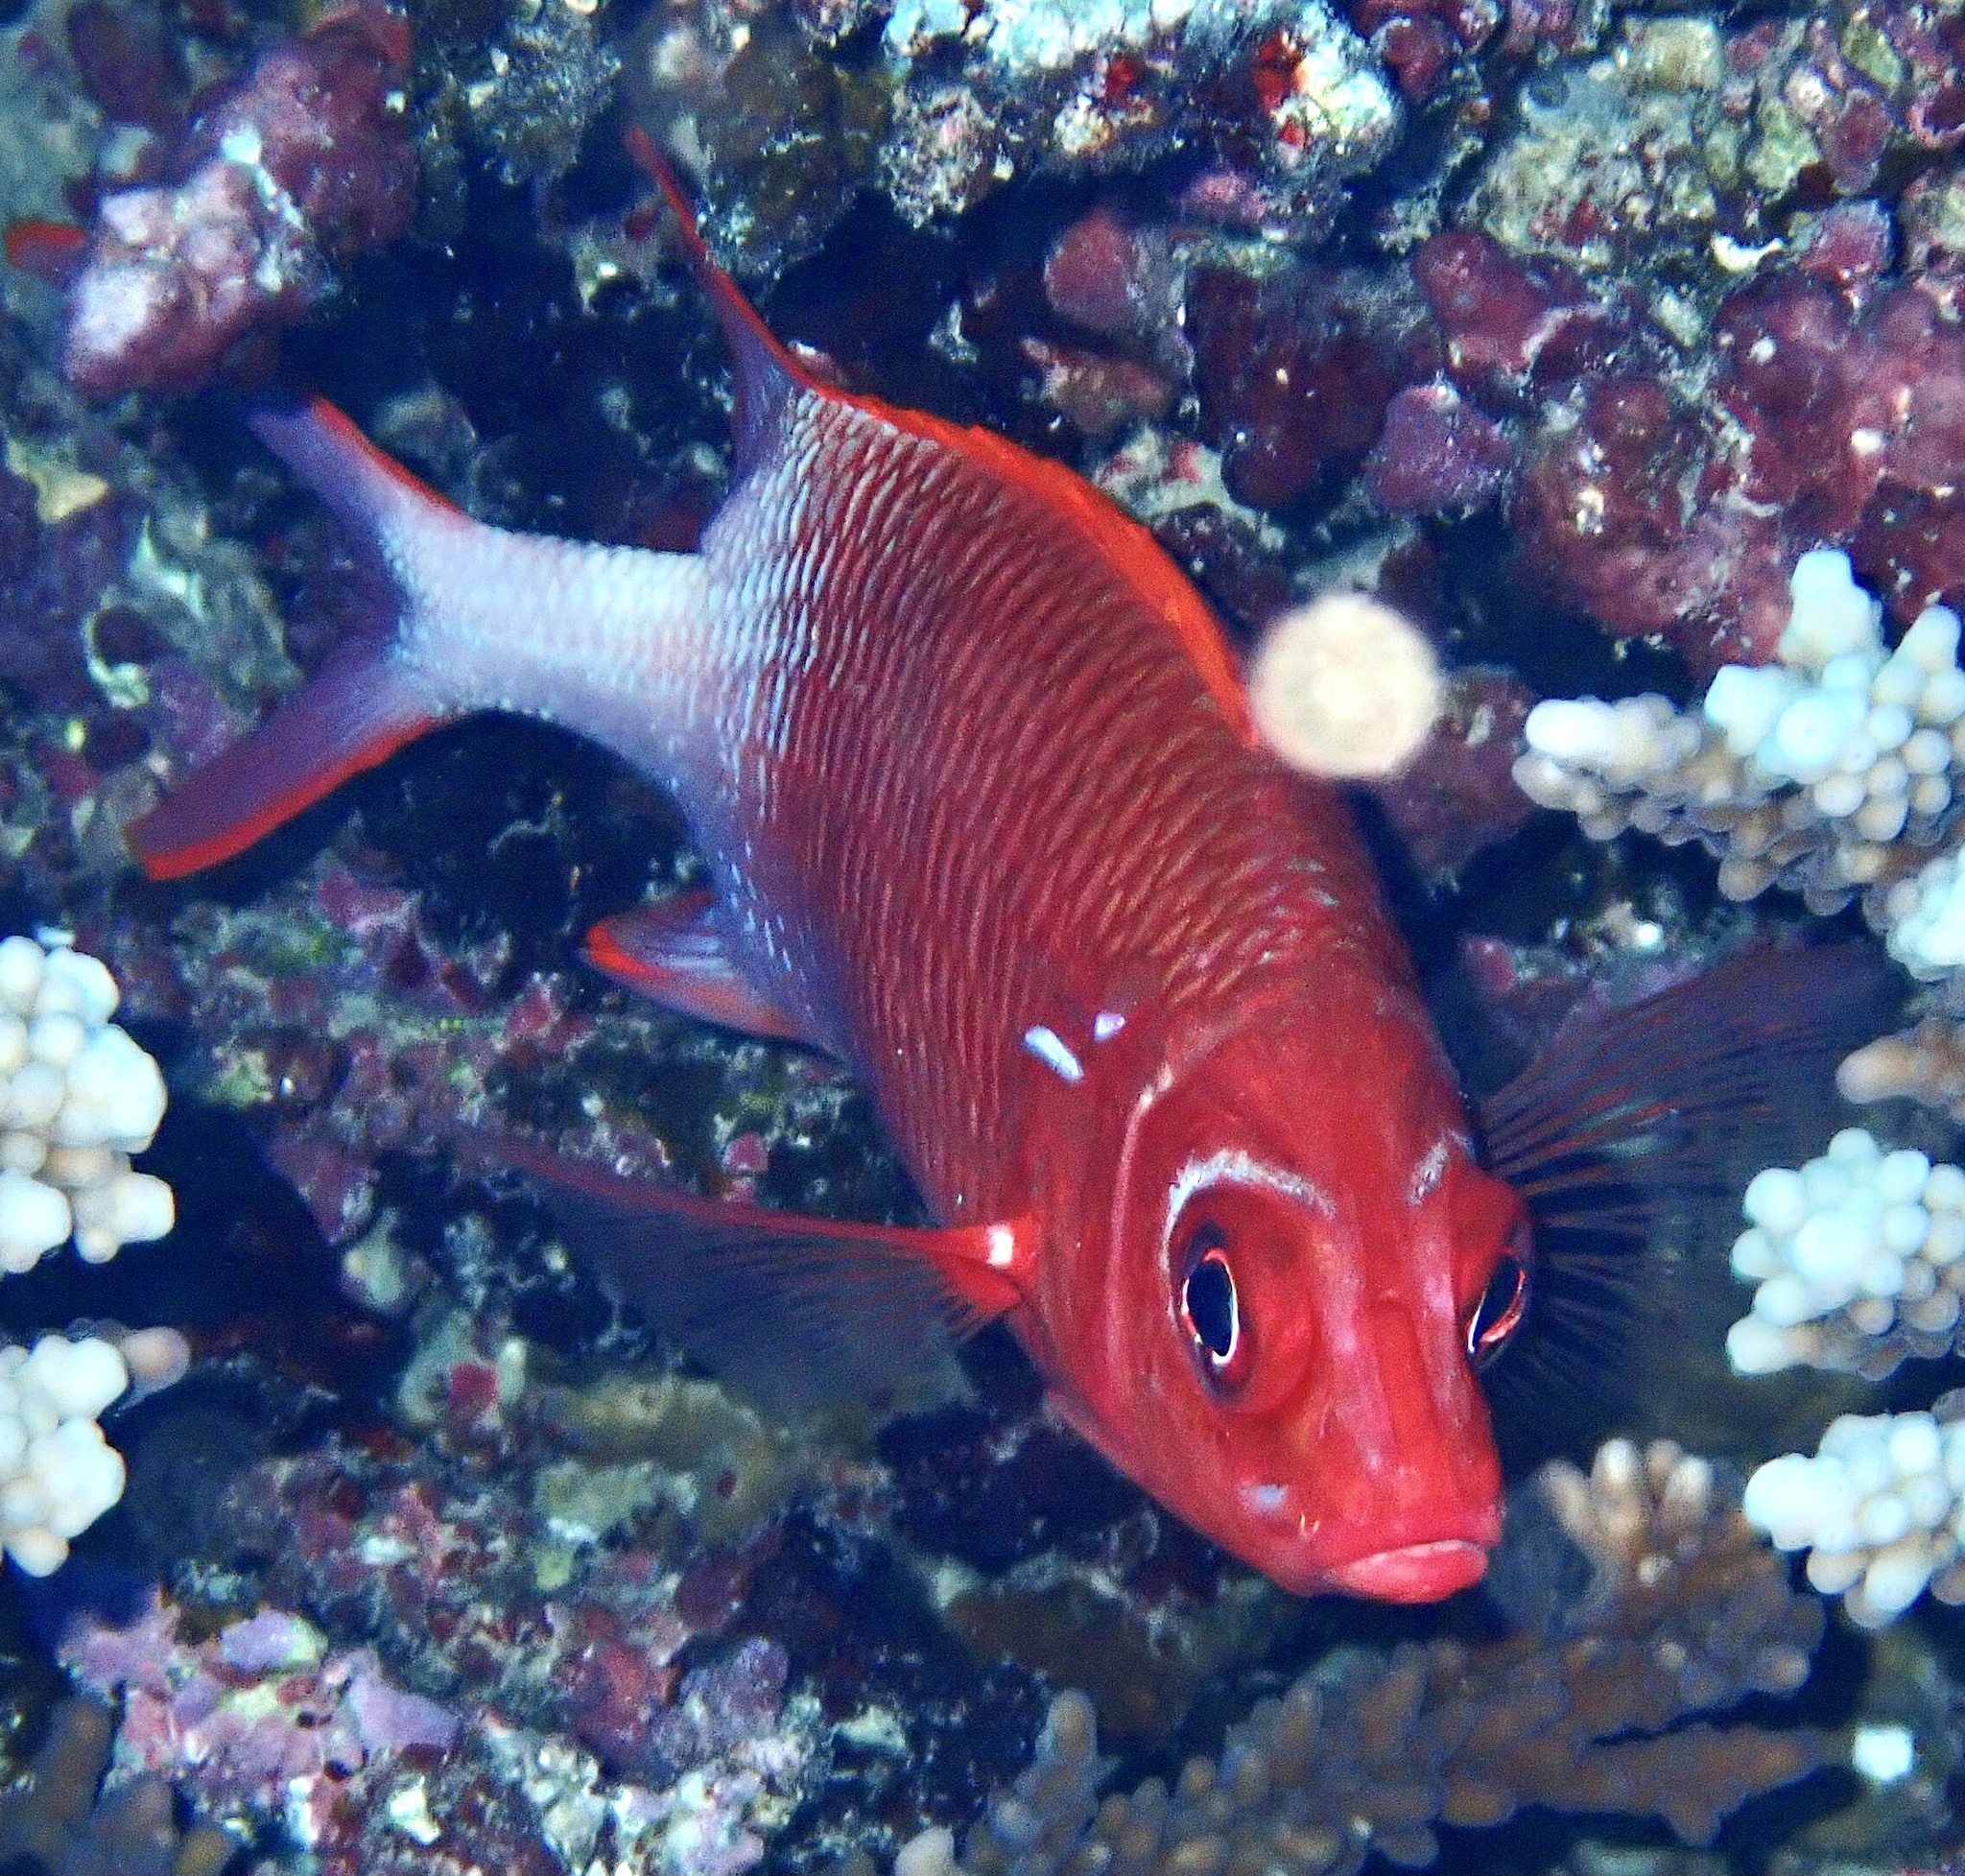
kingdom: Animalia
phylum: Chordata
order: Beryciformes
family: Holocentridae
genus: Sargocentron
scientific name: Sargocentron caudimaculatum
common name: Fanfin soldier
